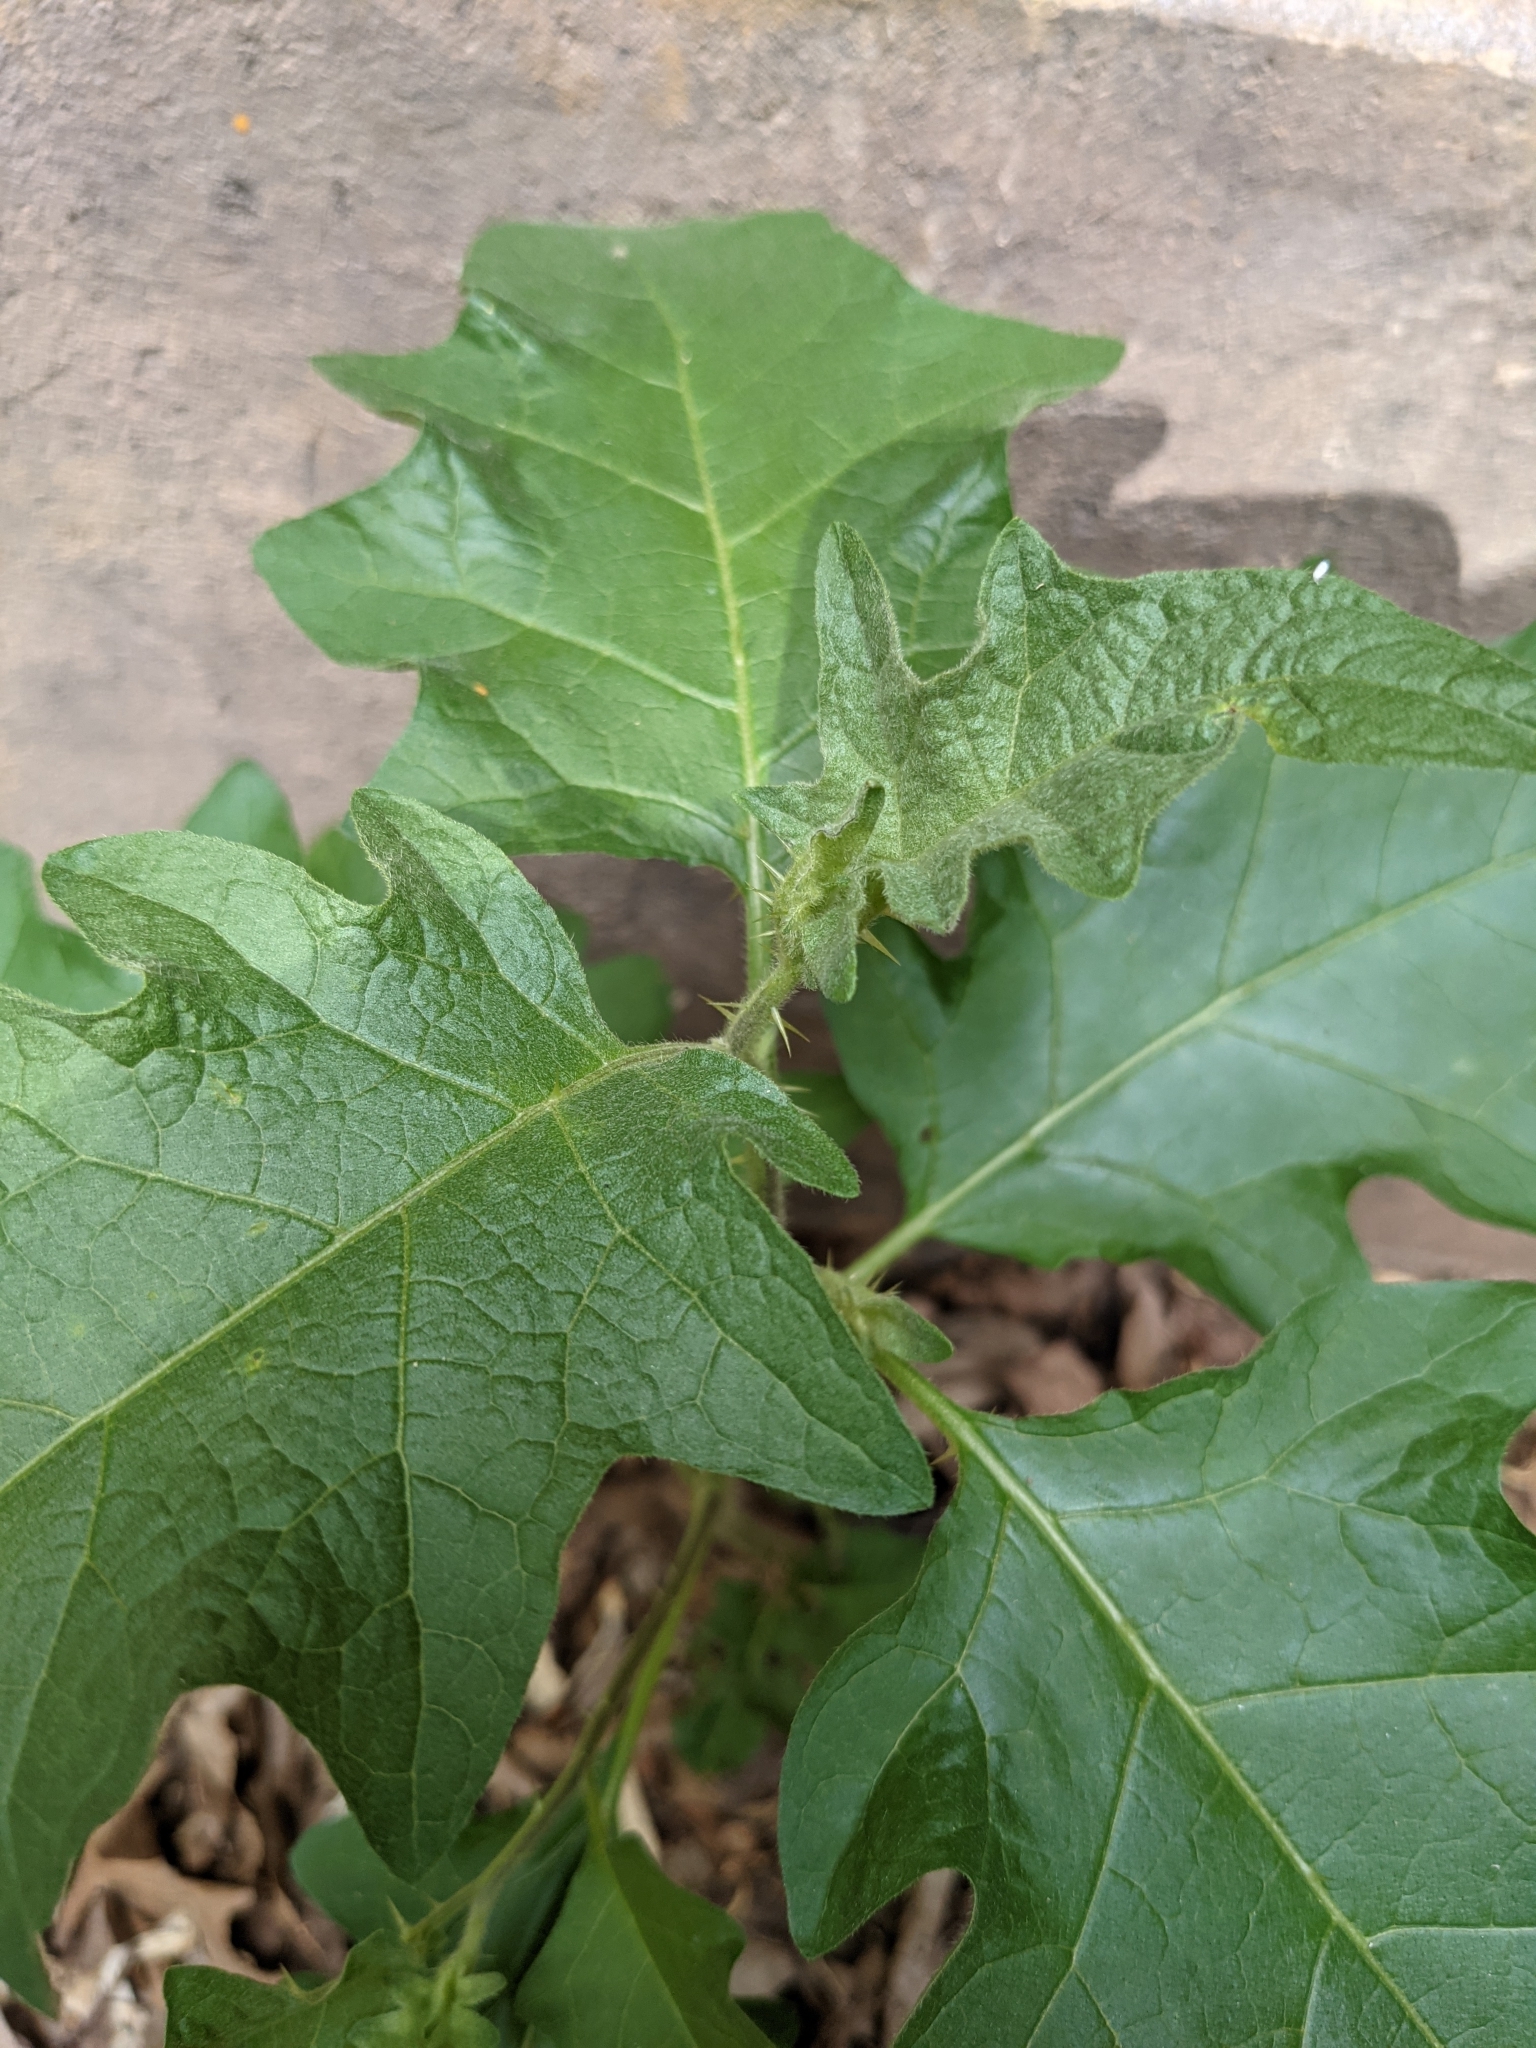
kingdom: Plantae
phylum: Tracheophyta
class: Magnoliopsida
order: Solanales
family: Solanaceae
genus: Solanum
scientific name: Solanum carolinense
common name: Horse-nettle
